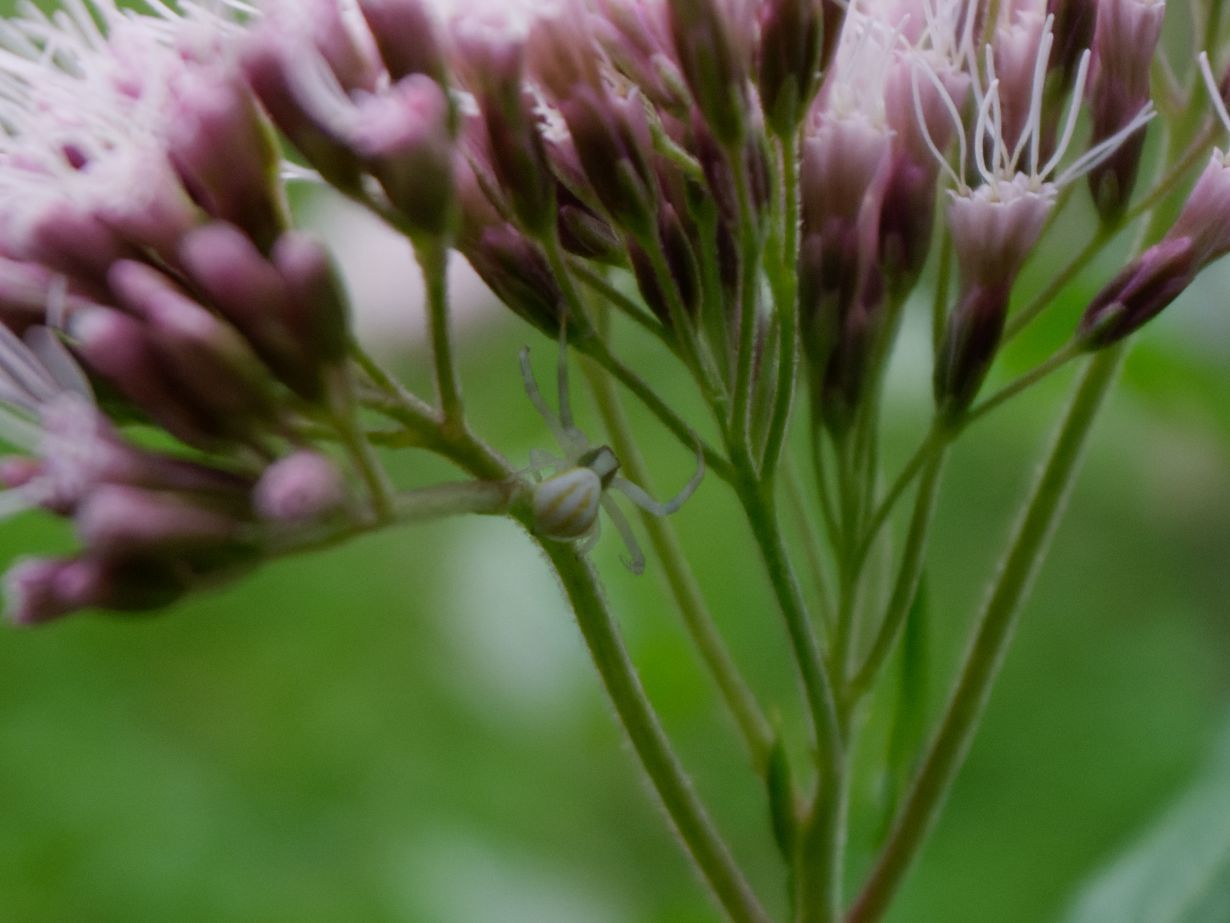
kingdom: Animalia
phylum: Arthropoda
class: Arachnida
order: Araneae
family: Thomisidae
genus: Misumena
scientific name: Misumena vatia
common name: Goldenrod crab spider
